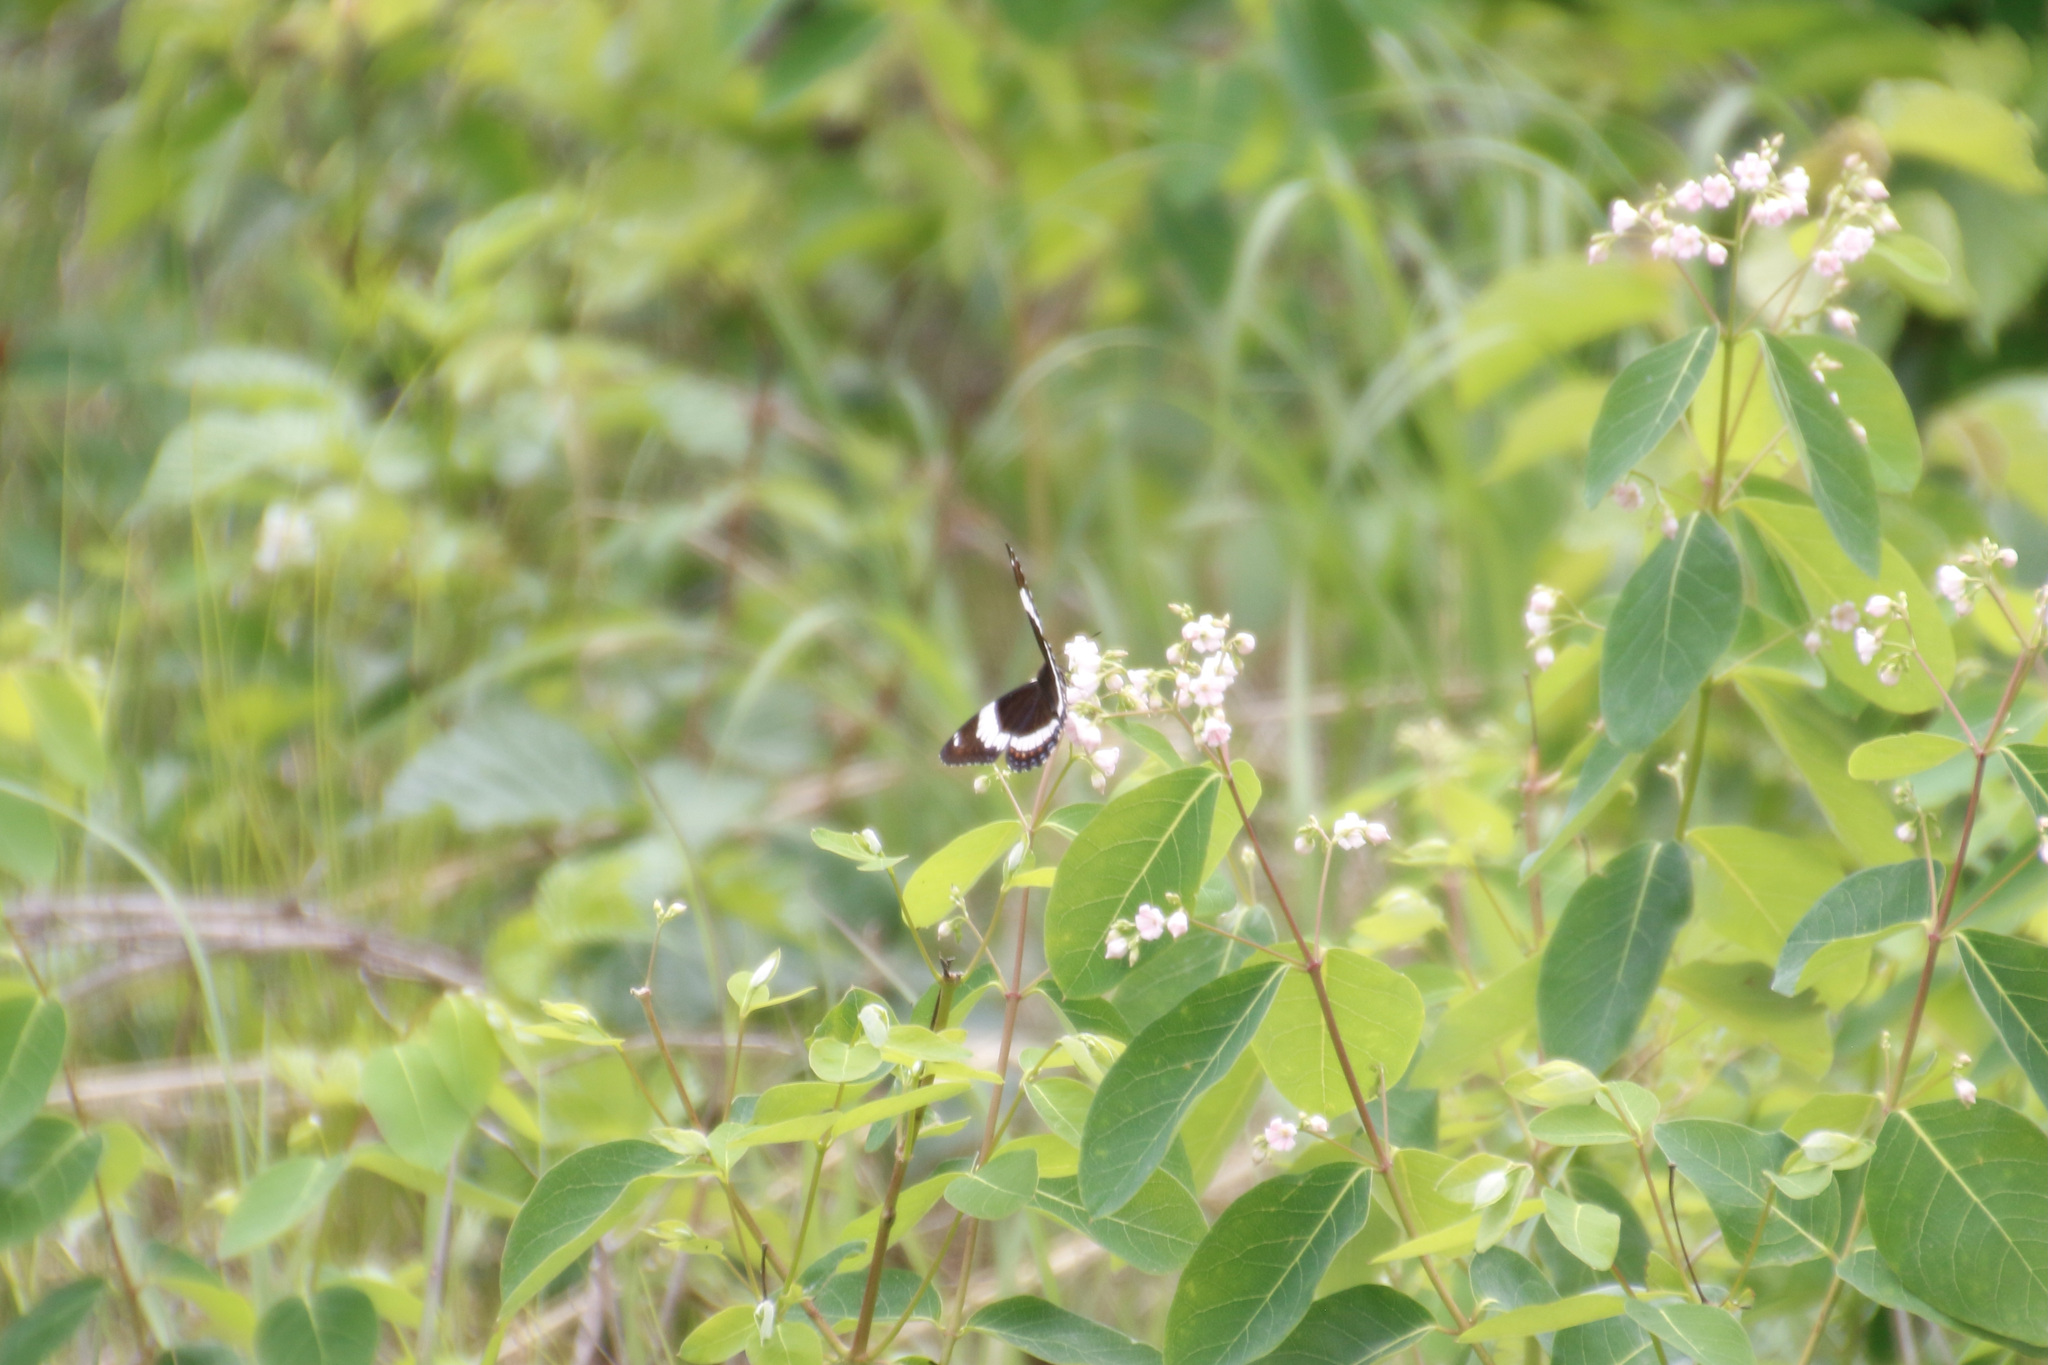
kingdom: Animalia
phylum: Arthropoda
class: Insecta
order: Lepidoptera
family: Nymphalidae
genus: Limenitis
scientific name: Limenitis arthemis
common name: Red-spotted admiral
